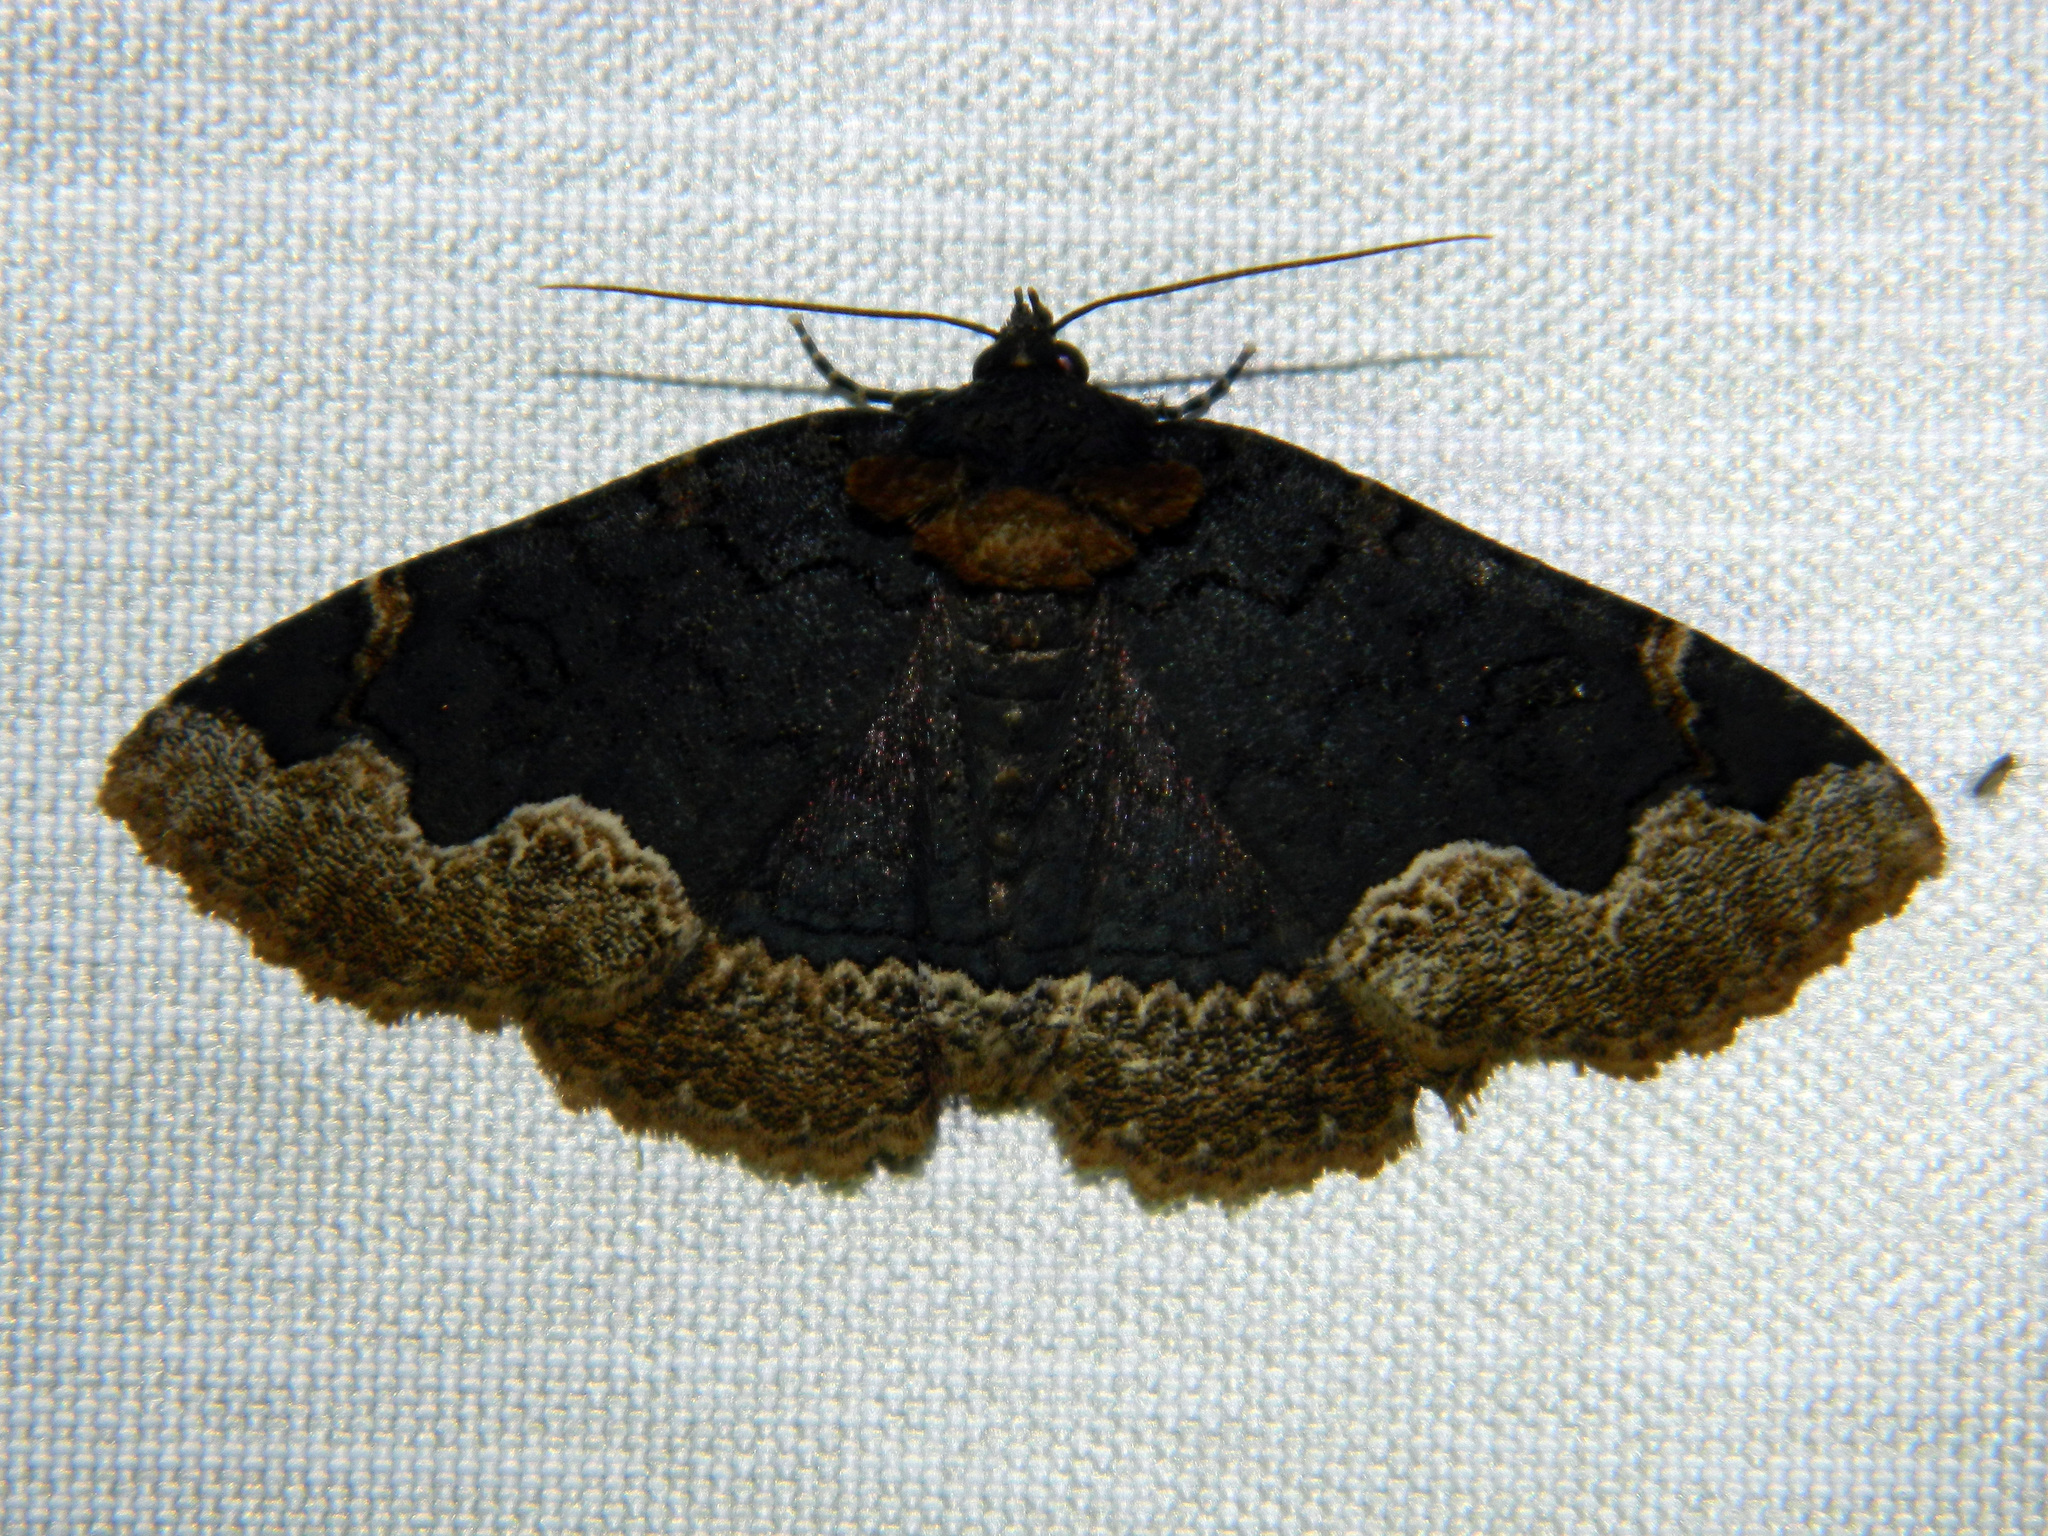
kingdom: Animalia
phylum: Arthropoda
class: Insecta
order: Lepidoptera
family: Erebidae
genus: Zale
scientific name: Zale horrida
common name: Horrid zale moth
